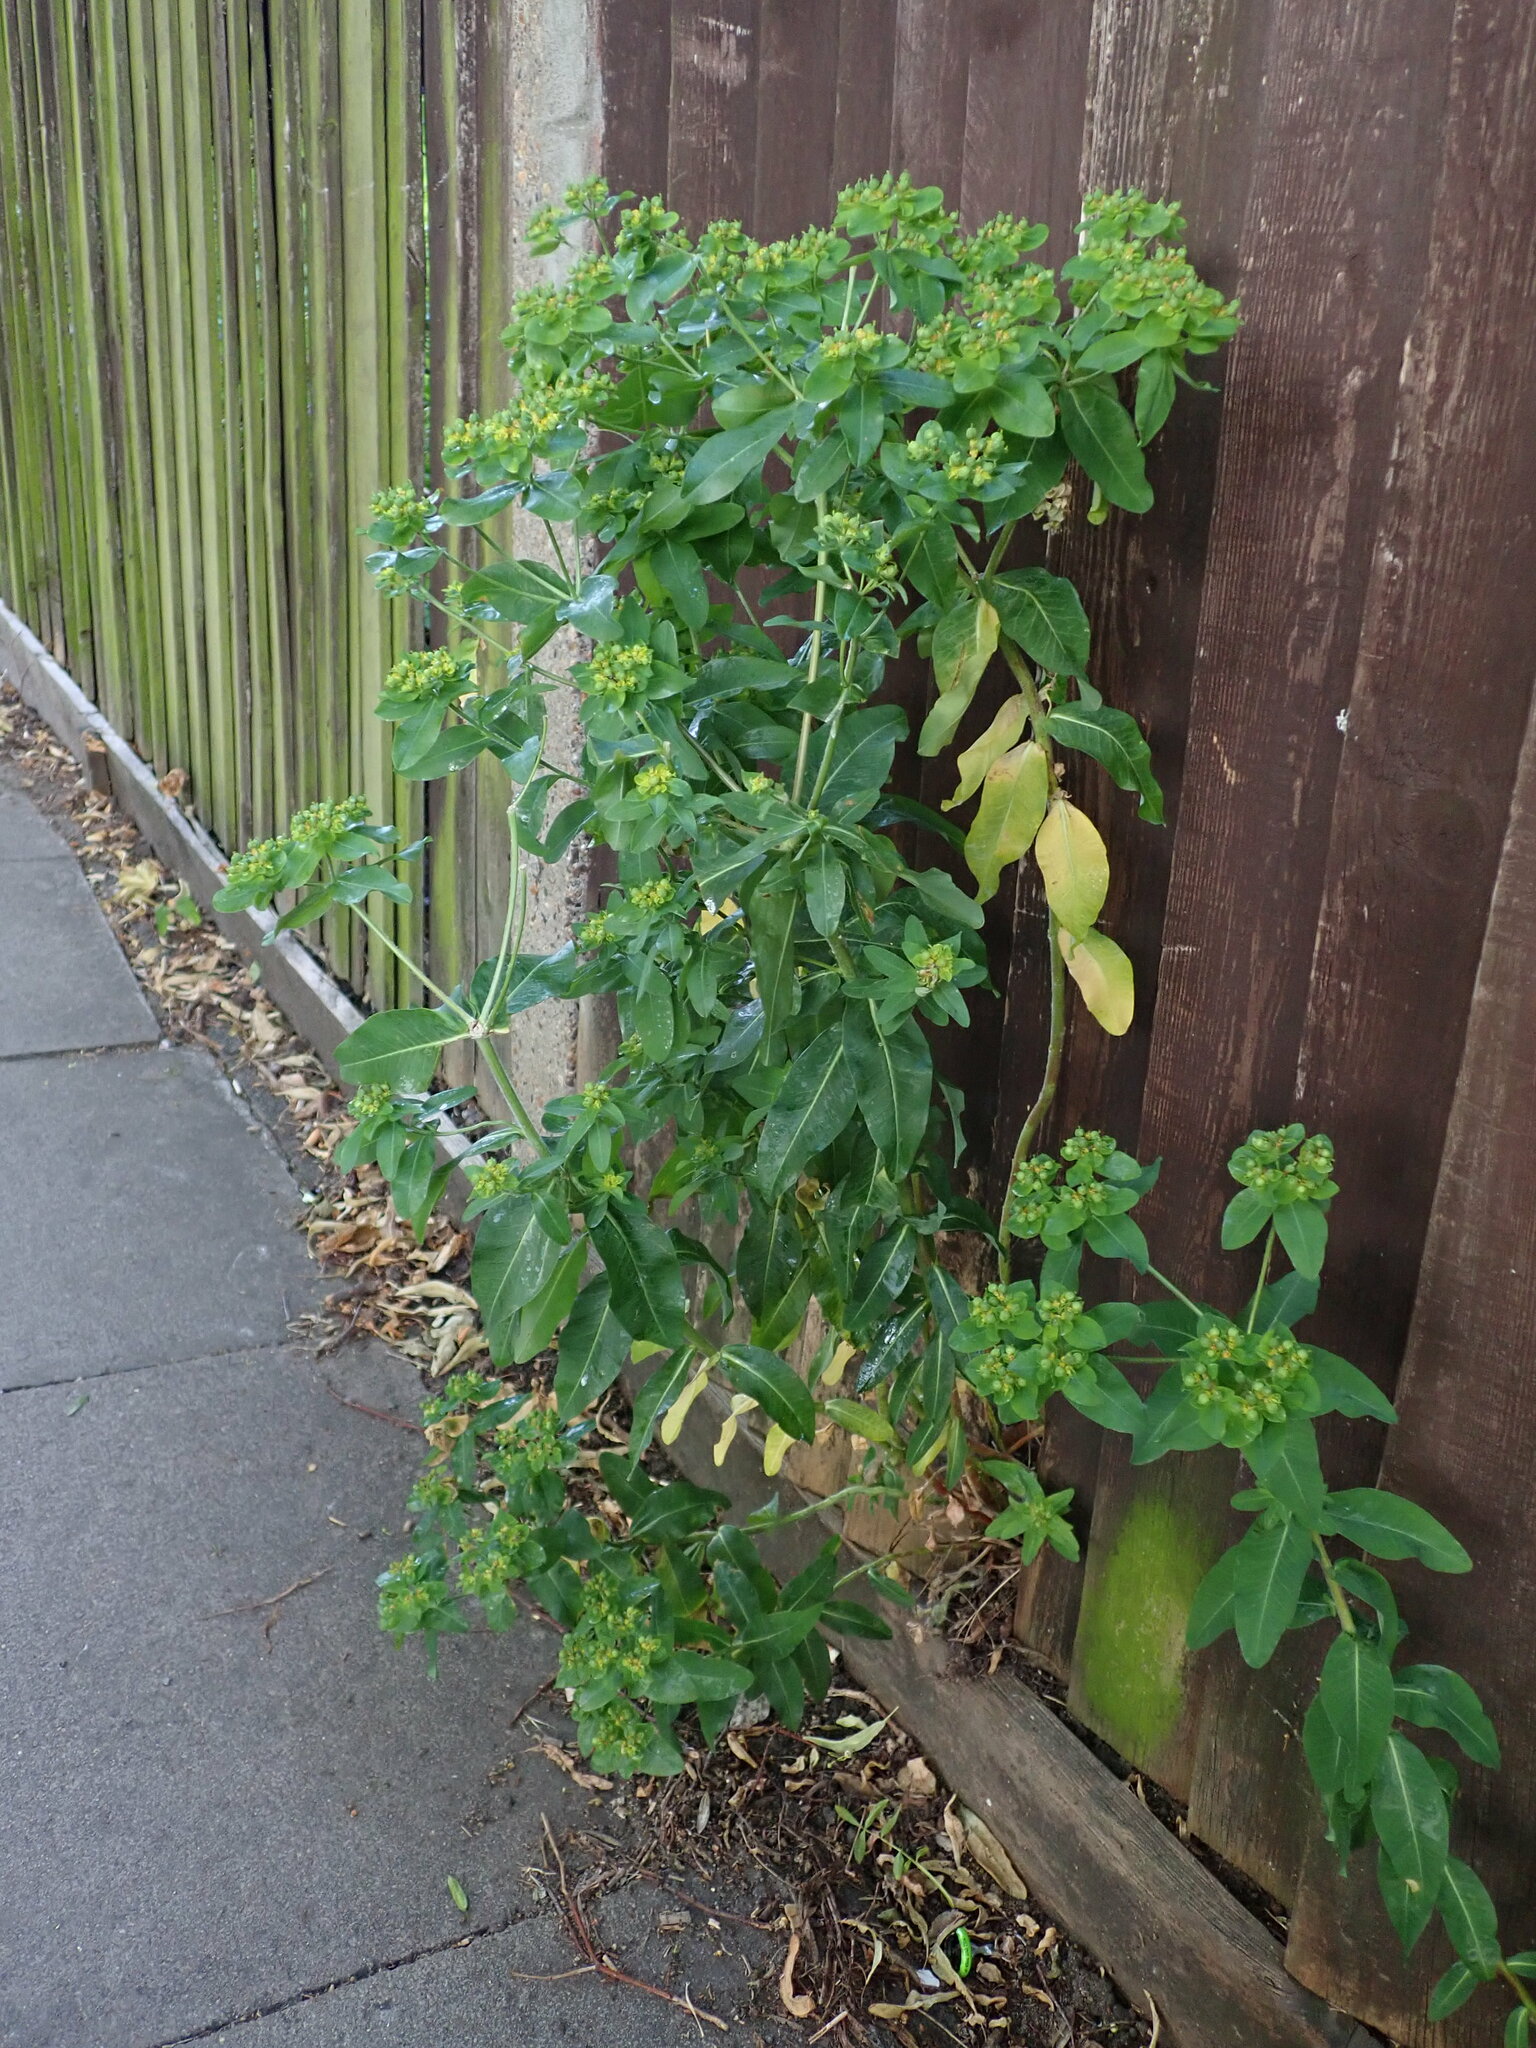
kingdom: Plantae
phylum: Tracheophyta
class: Magnoliopsida
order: Malpighiales
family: Euphorbiaceae
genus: Euphorbia
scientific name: Euphorbia oblongata
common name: Balkan spurge
